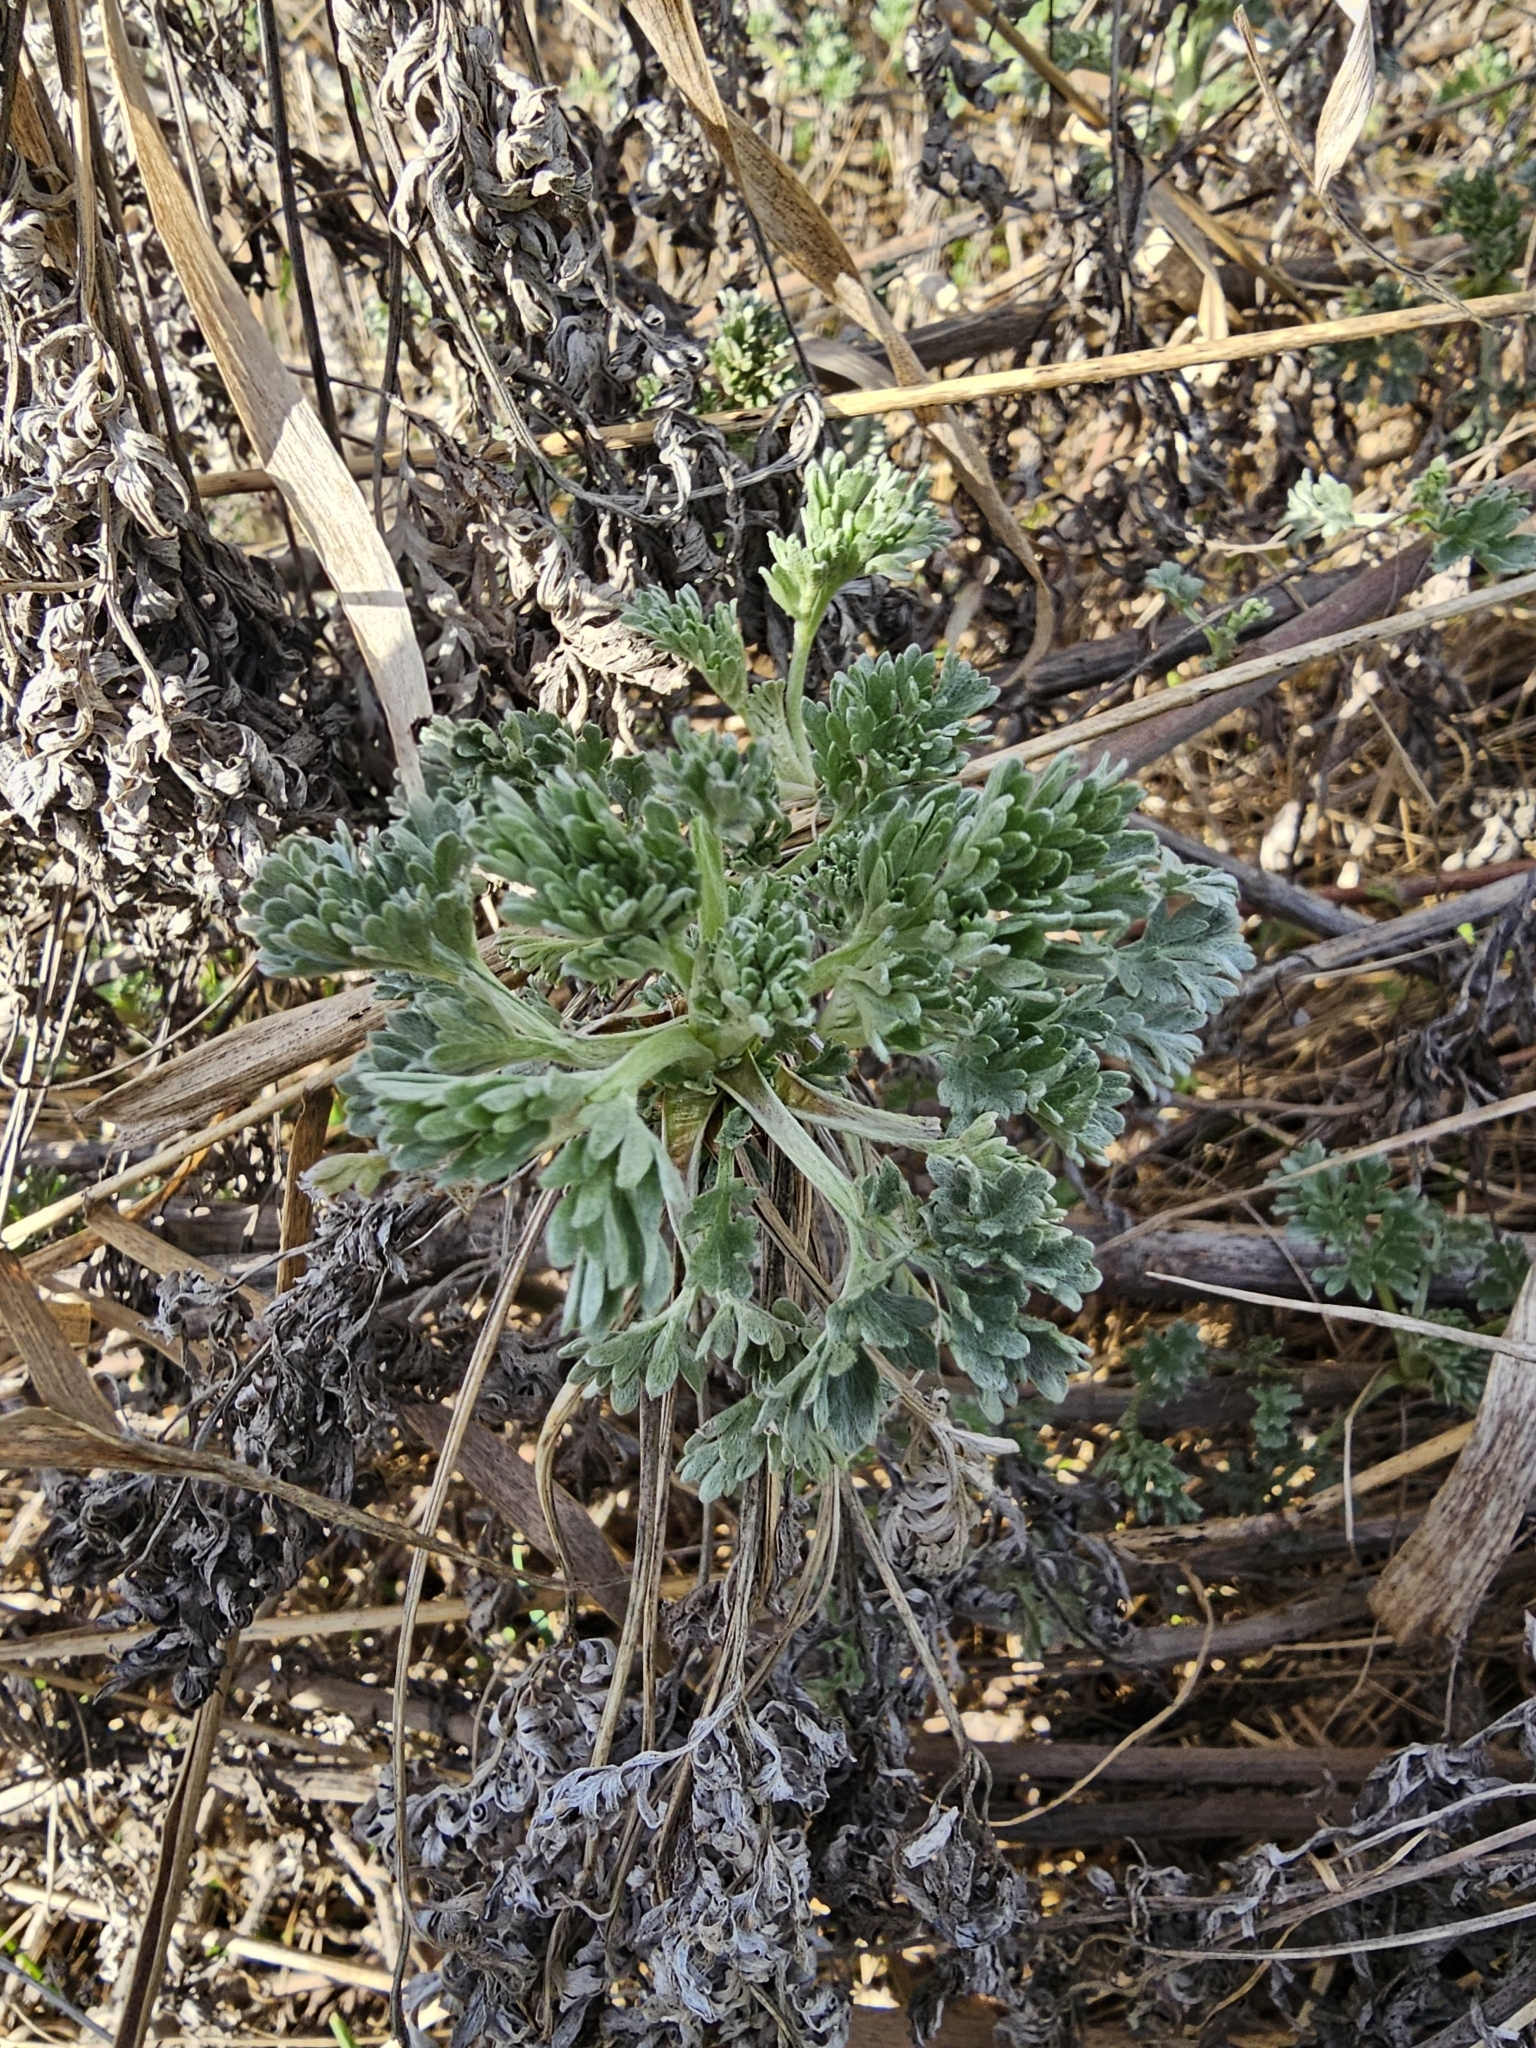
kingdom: Plantae
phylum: Tracheophyta
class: Magnoliopsida
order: Asterales
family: Asteraceae
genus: Artemisia
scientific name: Artemisia absinthium
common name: Wormwood
